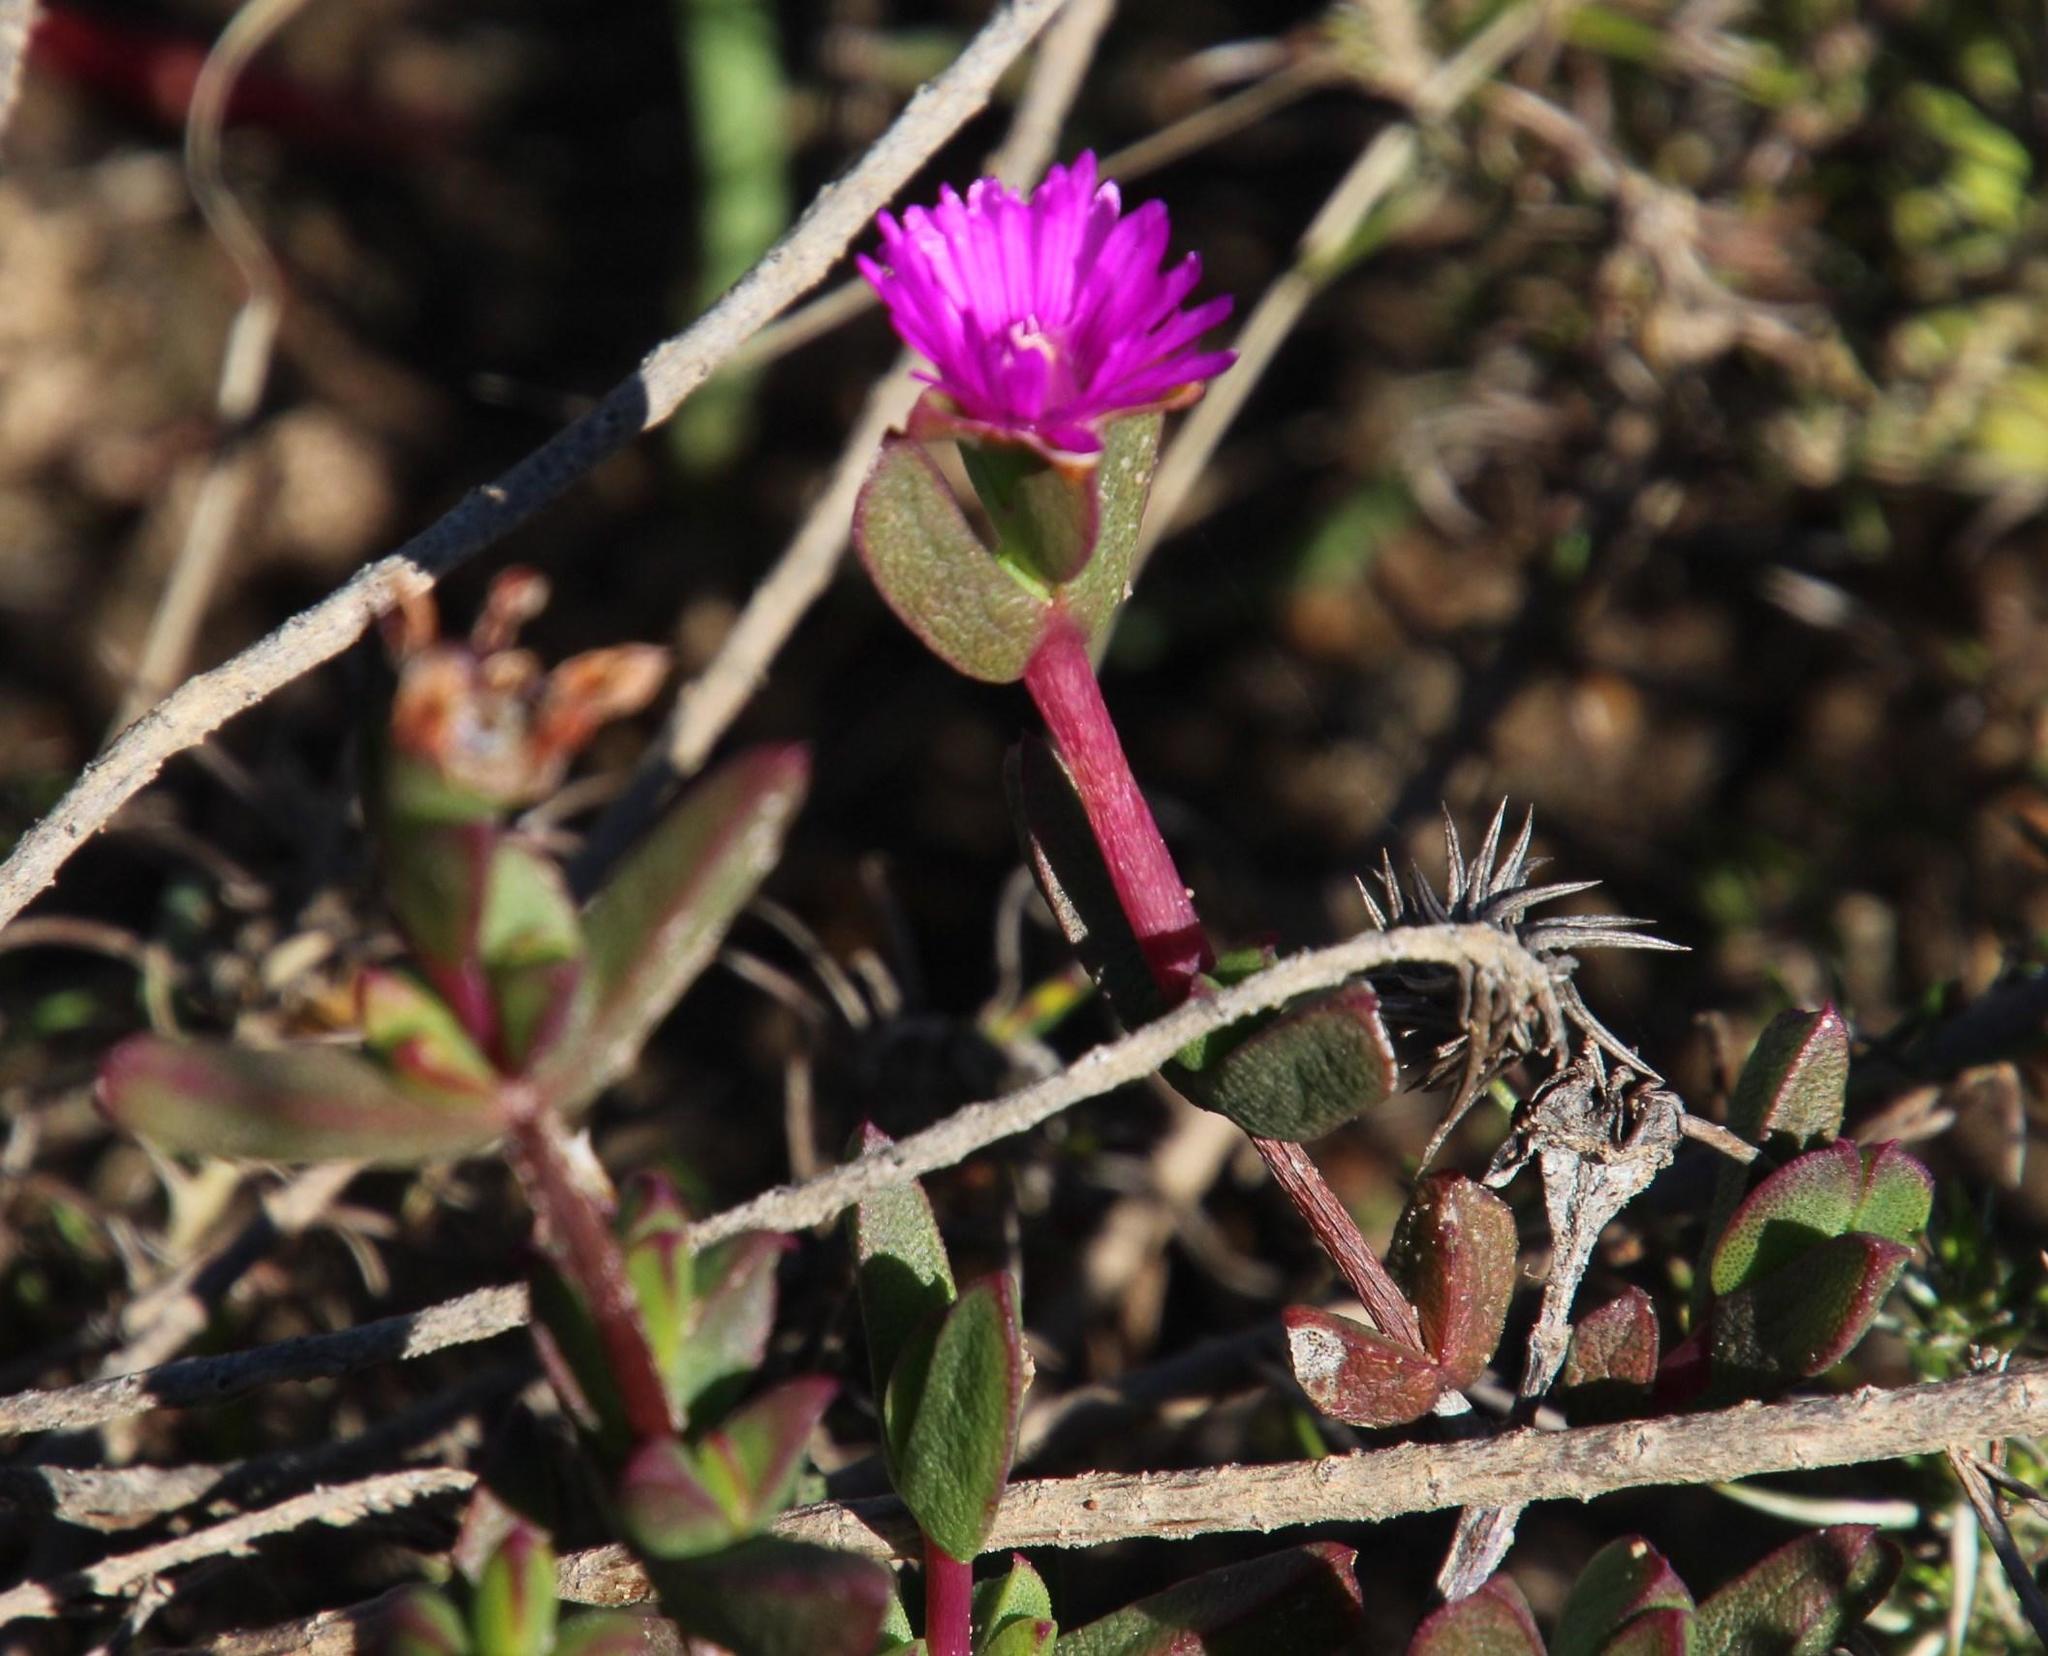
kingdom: Plantae
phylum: Tracheophyta
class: Magnoliopsida
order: Caryophyllales
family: Aizoaceae
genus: Ruschia
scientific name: Ruschia orientalis
